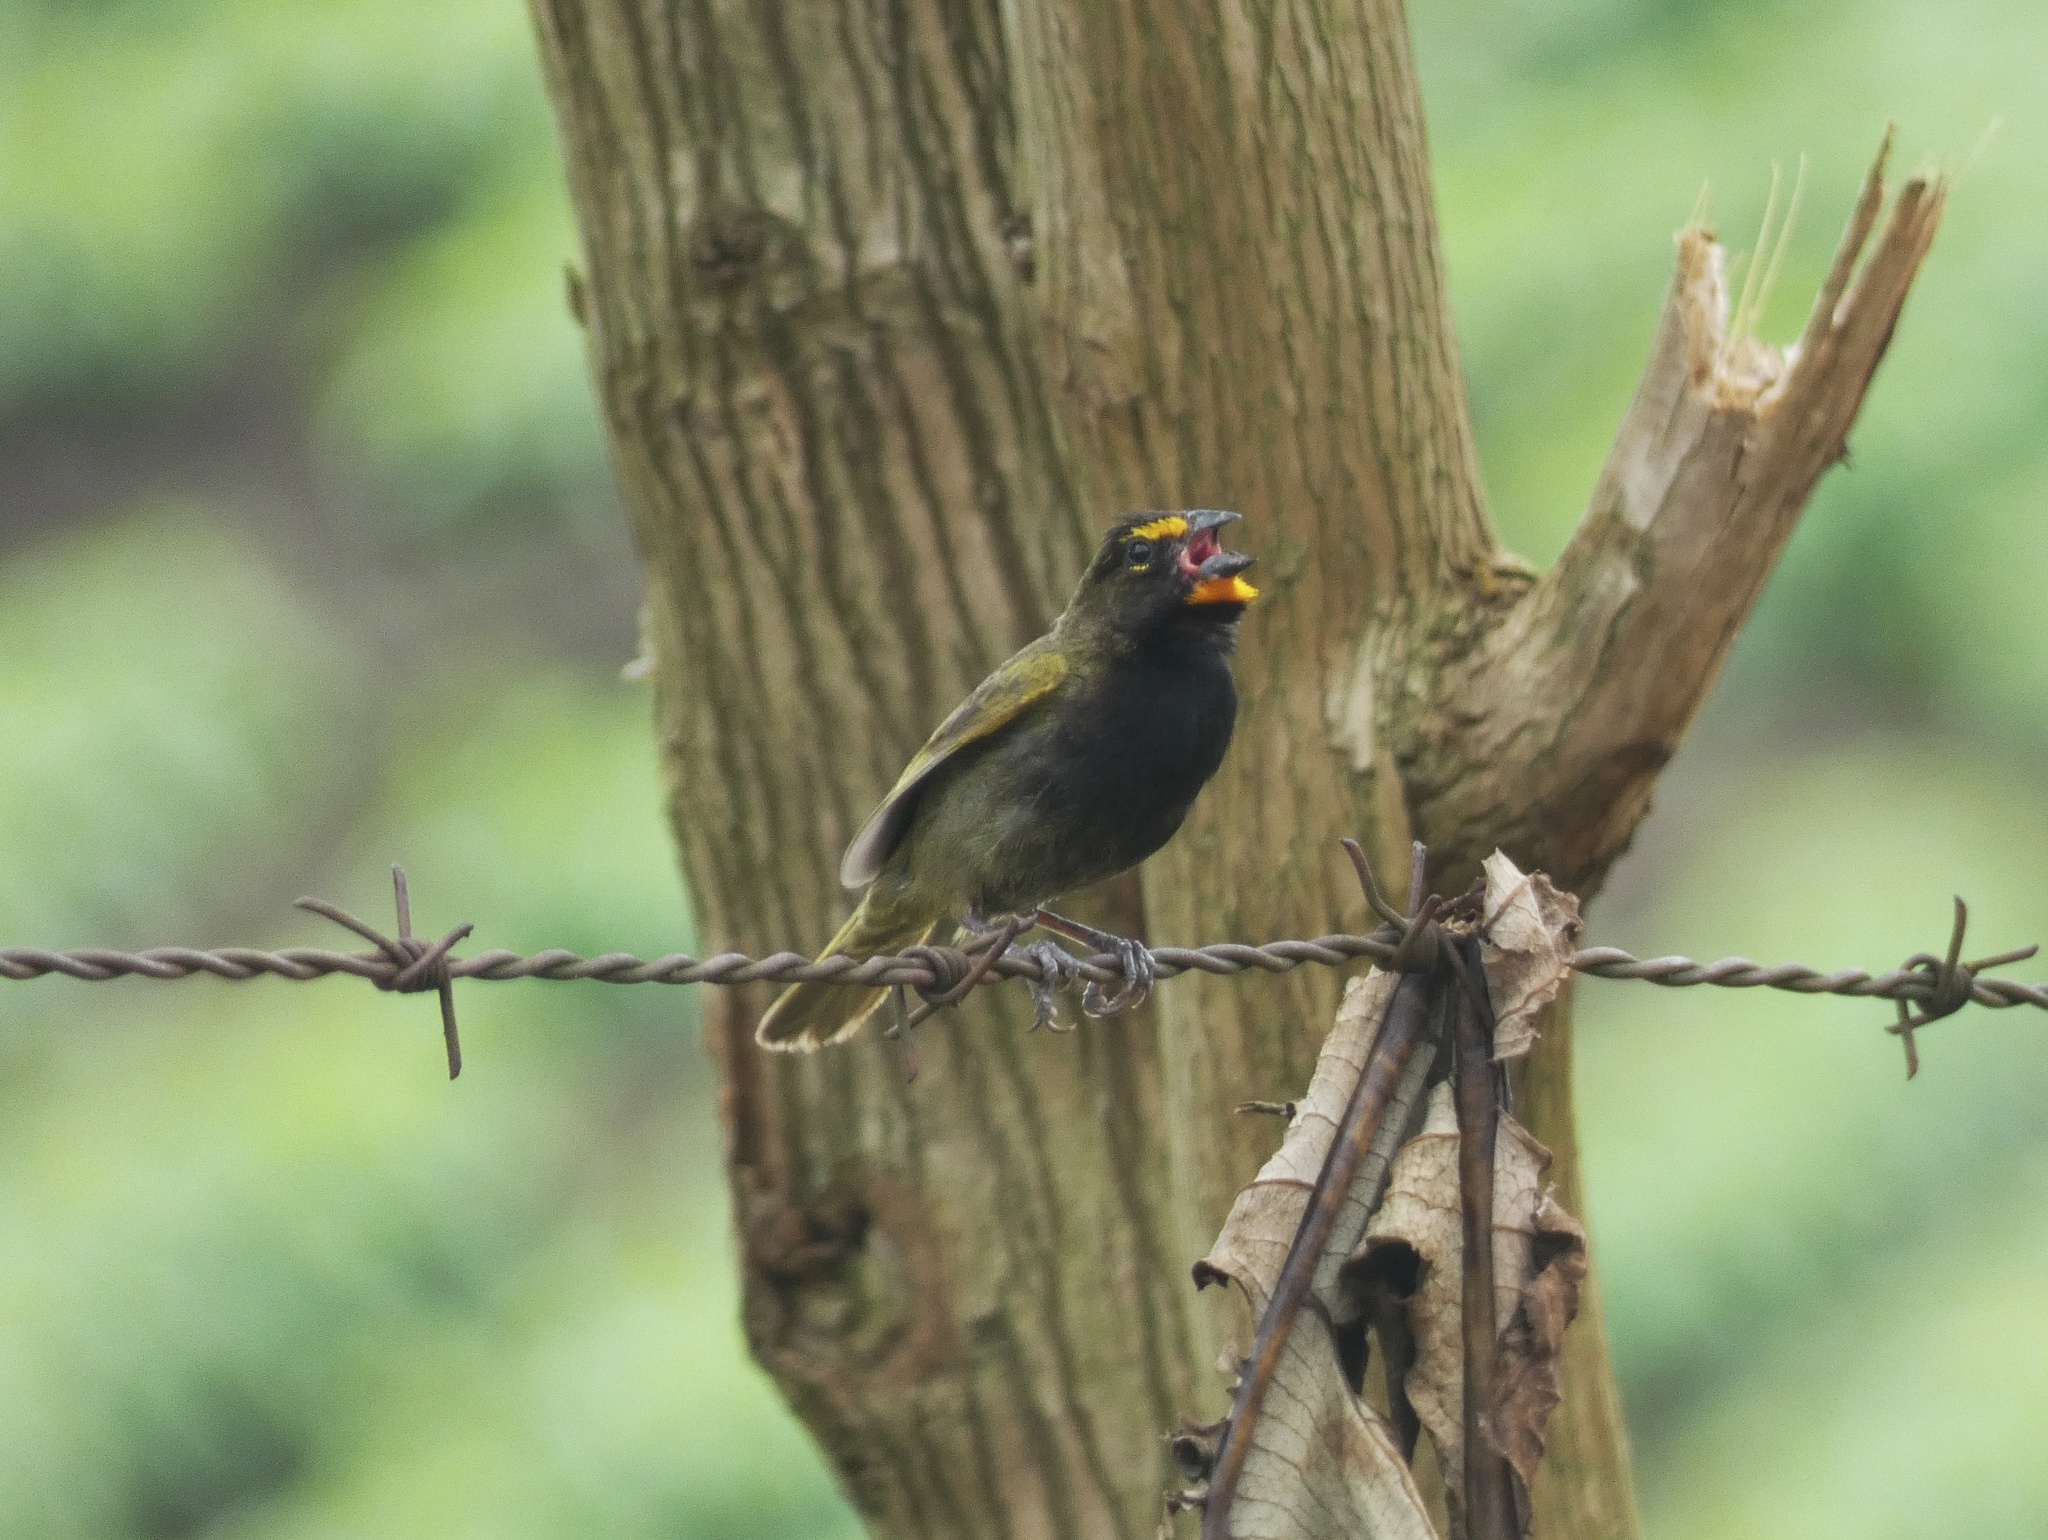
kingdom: Animalia
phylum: Chordata
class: Aves
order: Passeriformes
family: Thraupidae
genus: Tiaris
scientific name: Tiaris olivaceus
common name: Yellow-faced grassquit
